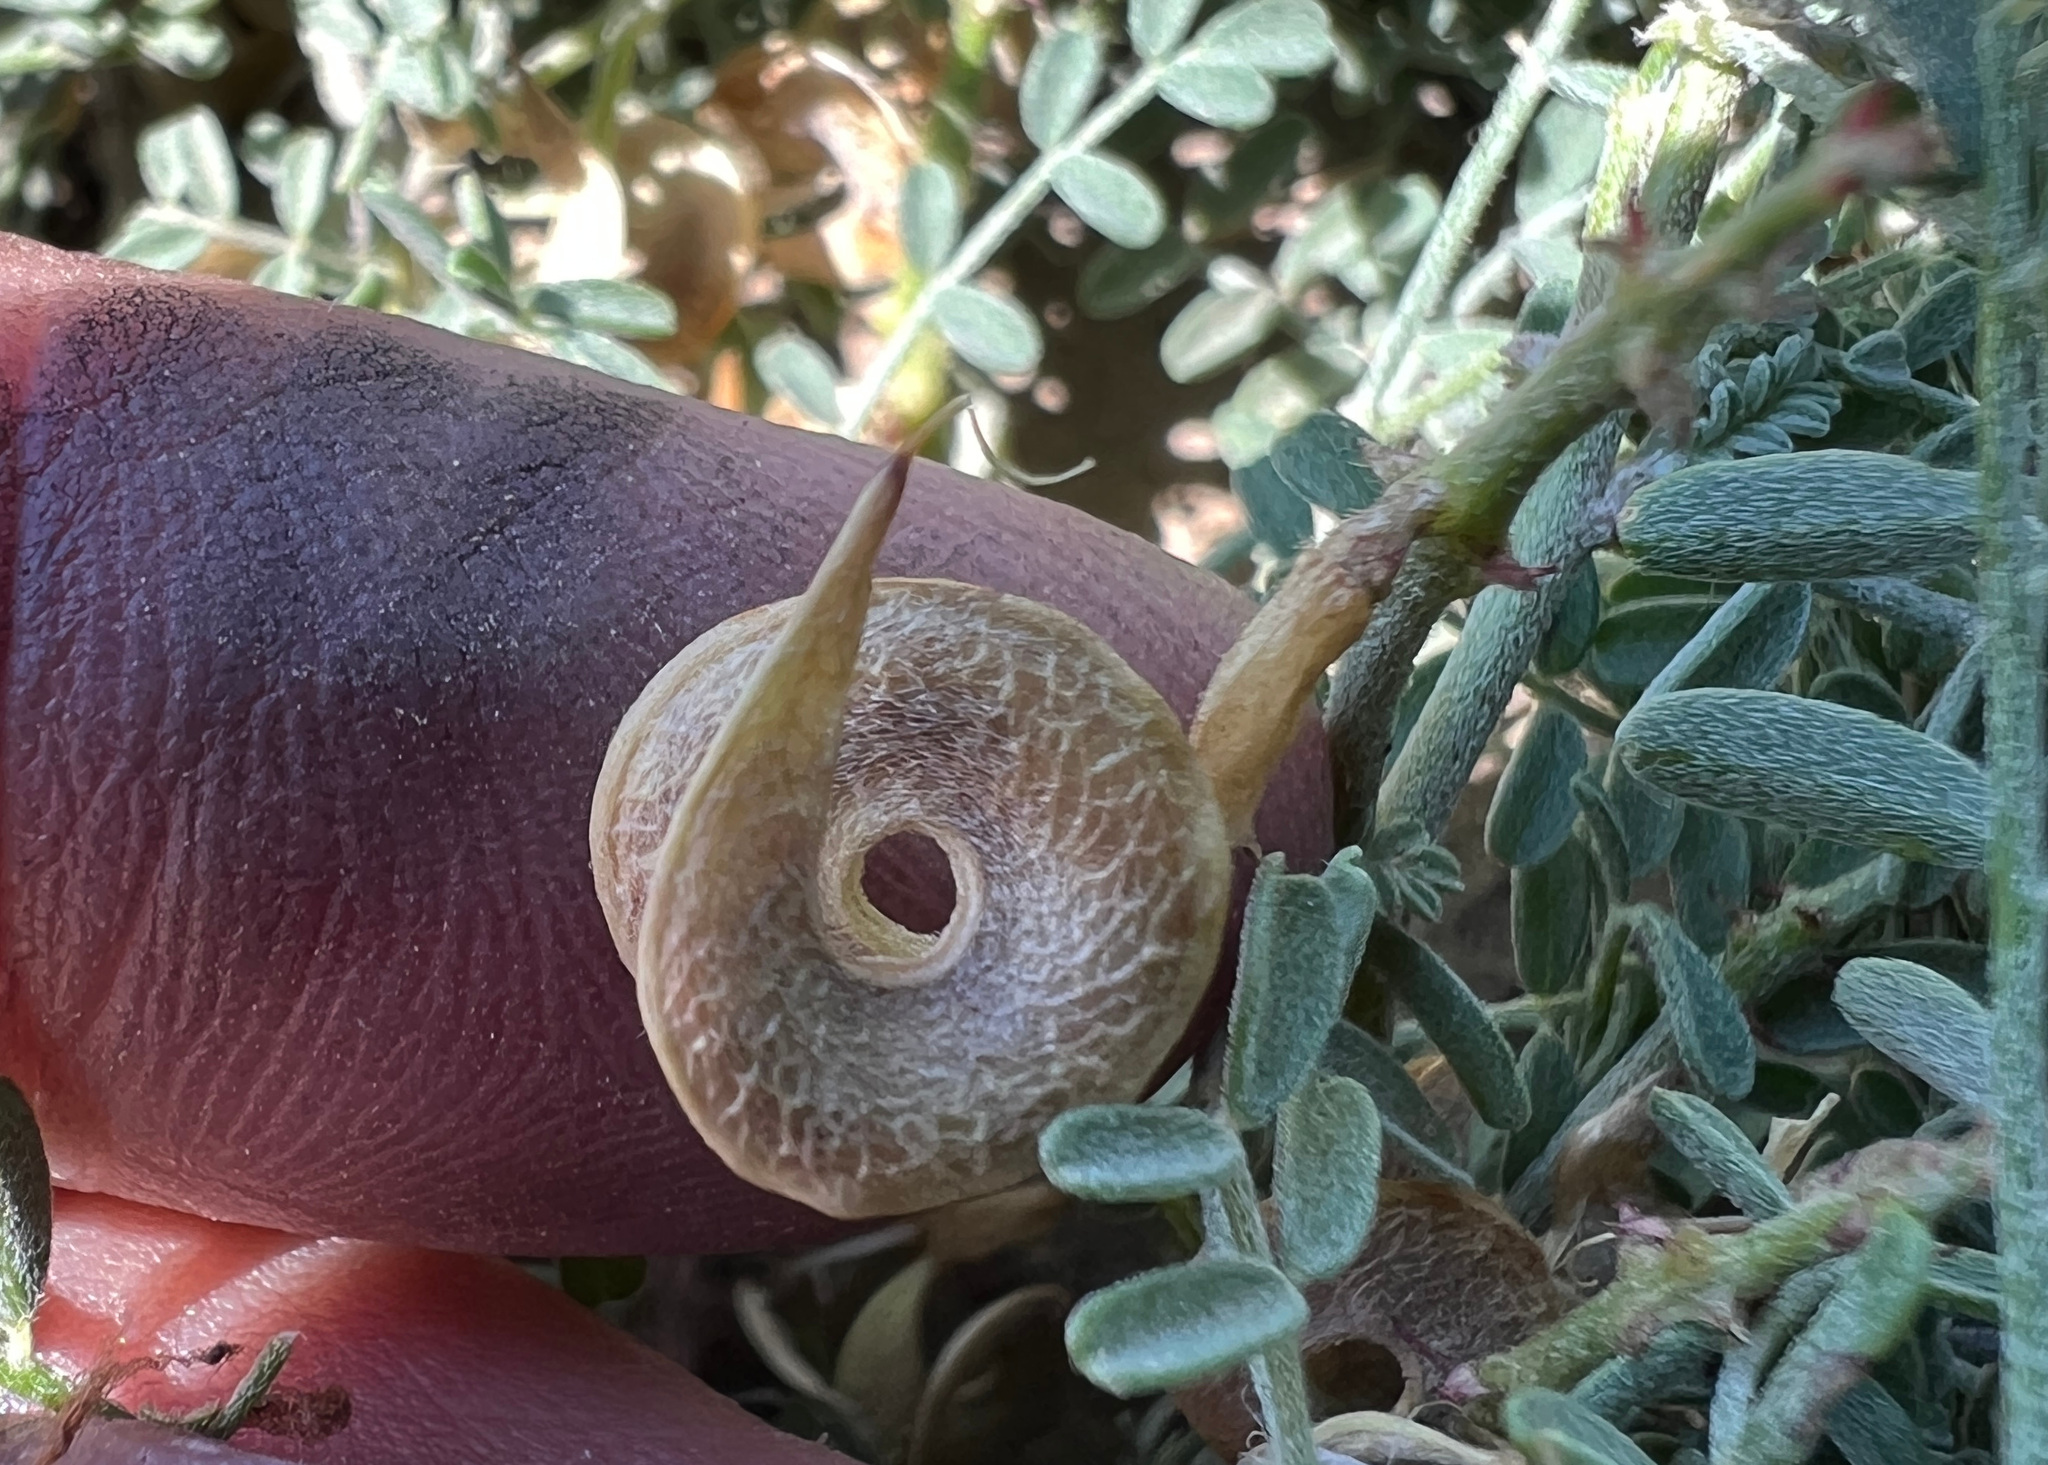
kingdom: Plantae
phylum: Tracheophyta
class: Magnoliopsida
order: Fabales
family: Fabaceae
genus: Astragalus
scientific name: Astragalus speirocarpus
